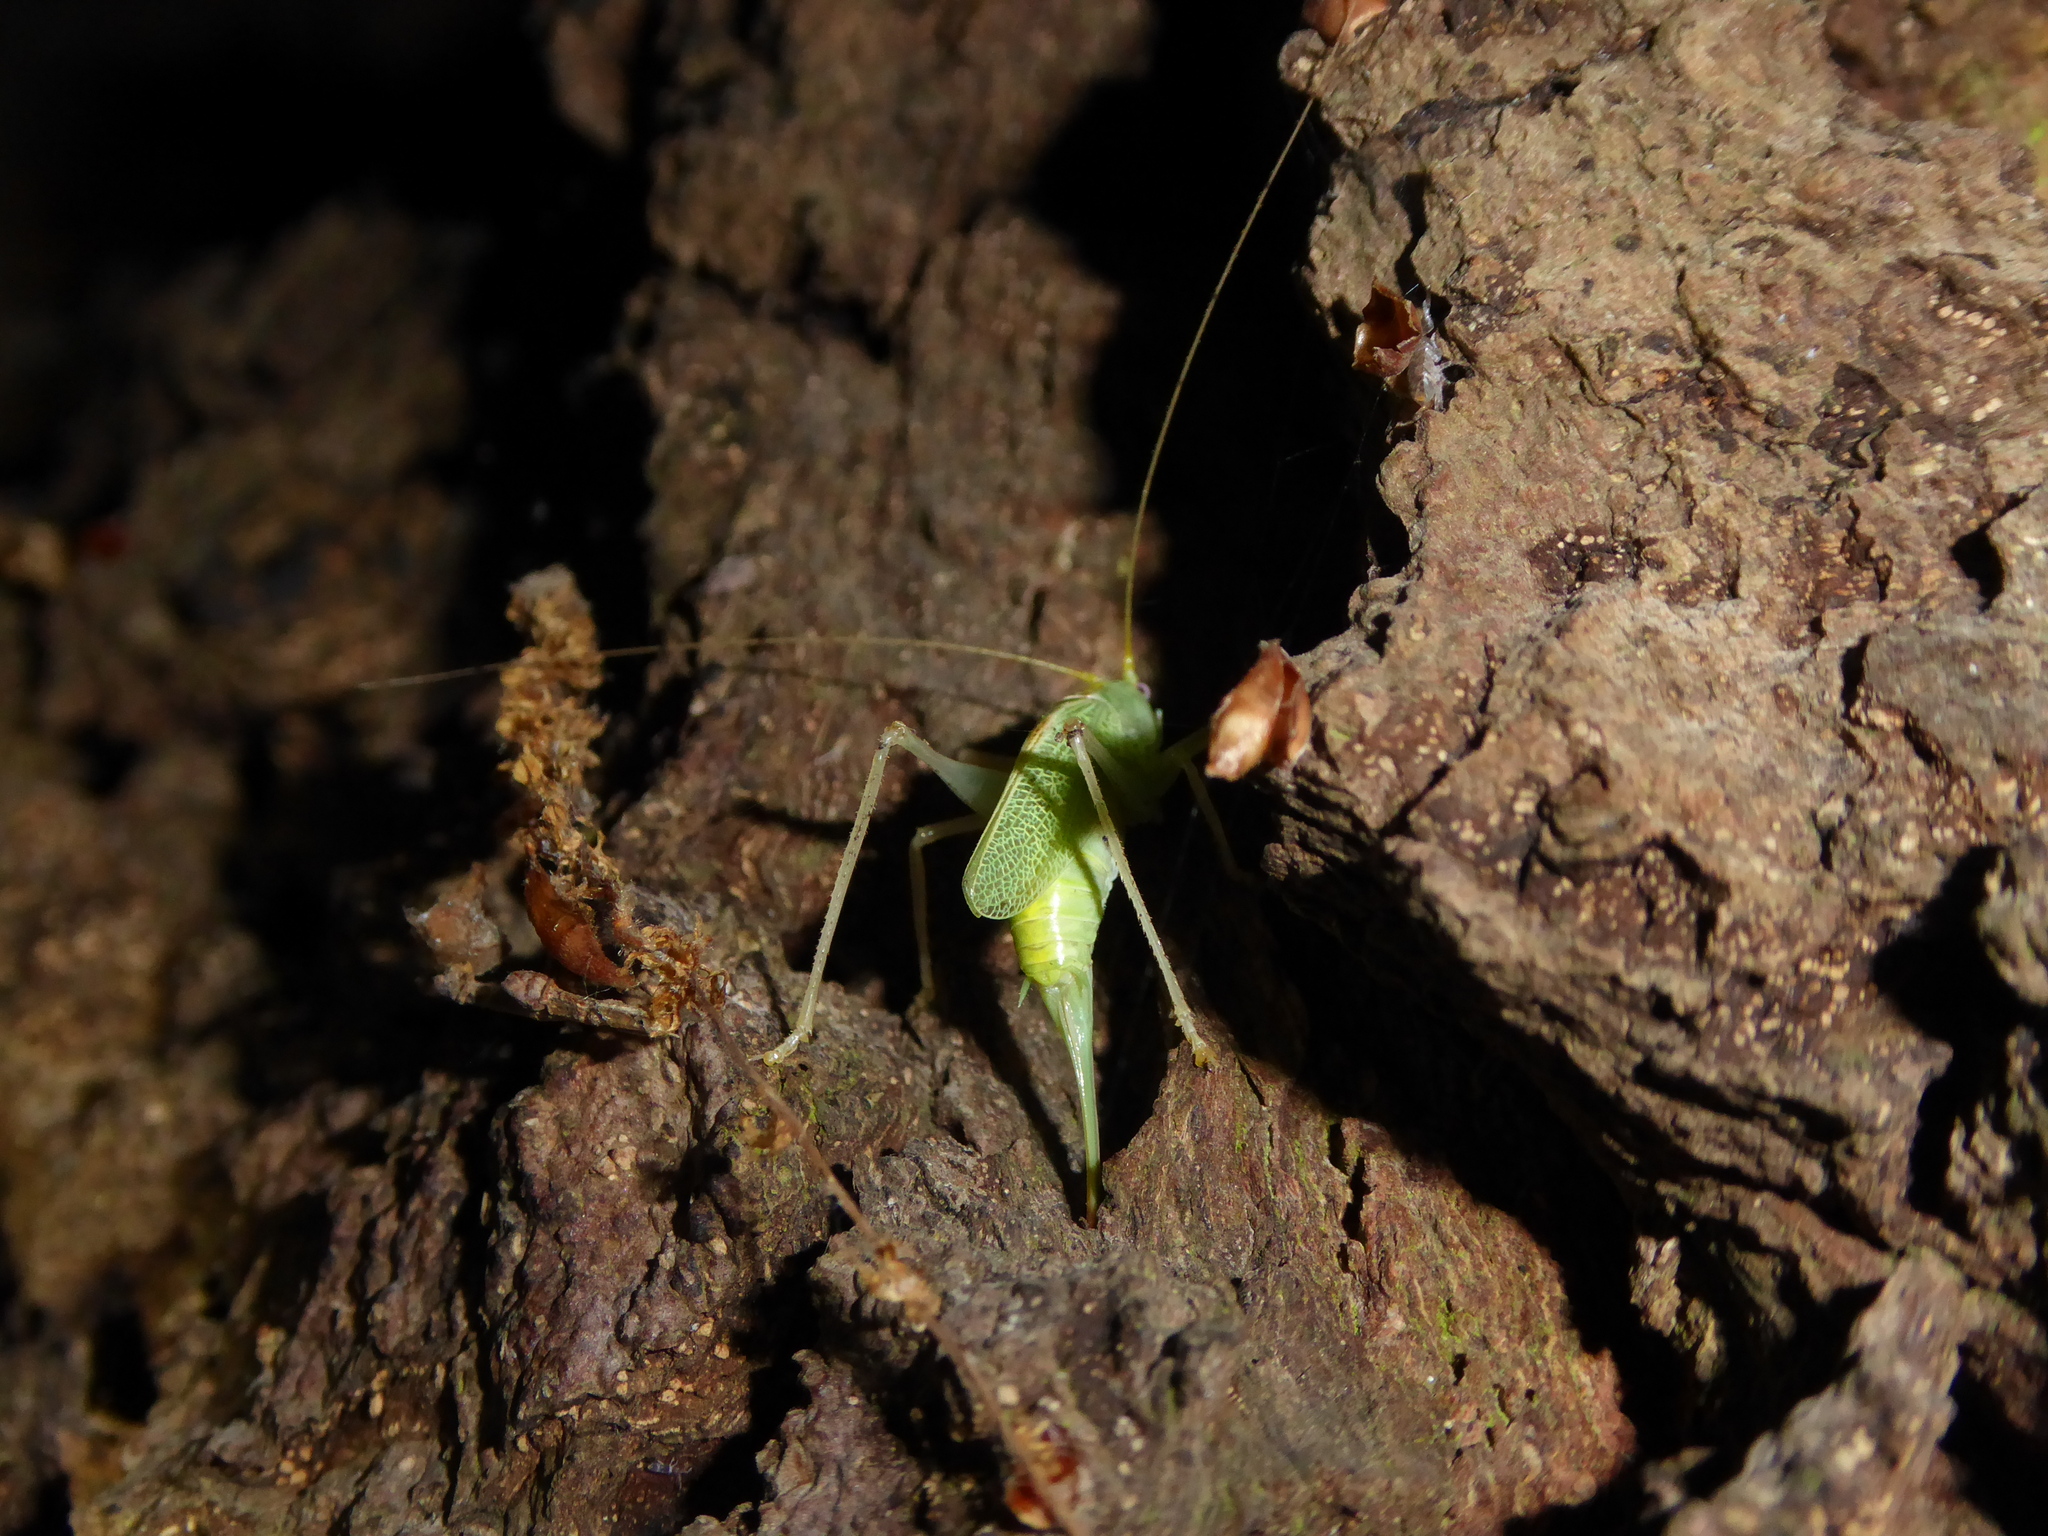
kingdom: Animalia
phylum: Arthropoda
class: Insecta
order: Orthoptera
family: Tettigoniidae
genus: Meconema
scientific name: Meconema thalassinum
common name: Oak bush-cricket
